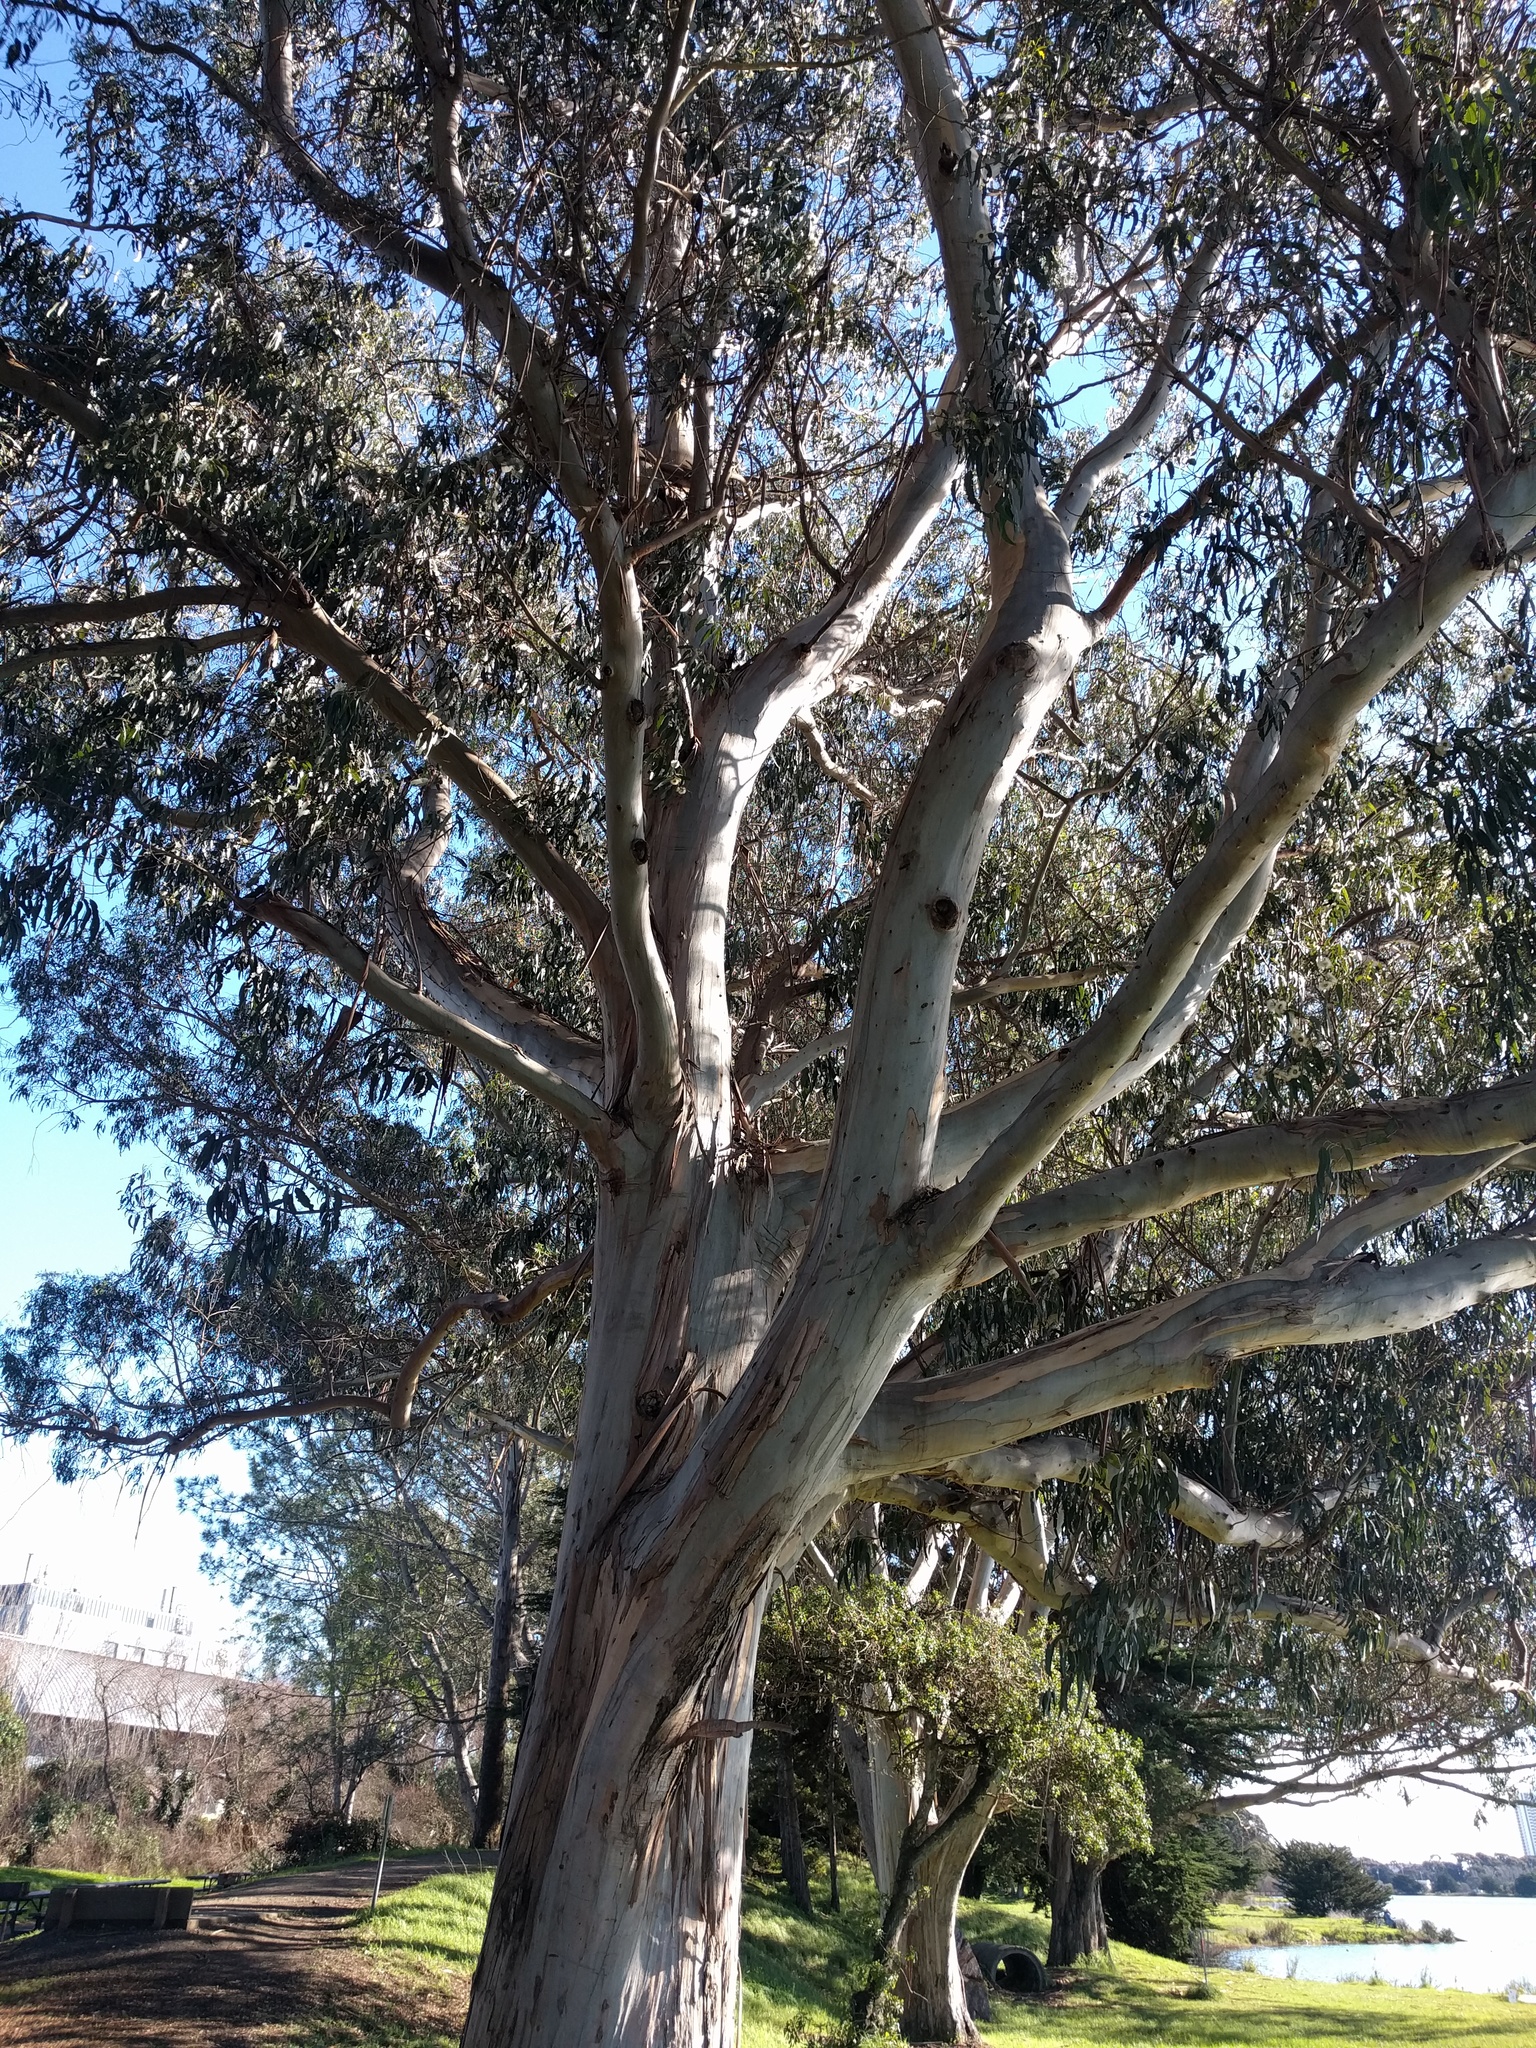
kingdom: Plantae
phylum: Tracheophyta
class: Magnoliopsida
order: Myrtales
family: Myrtaceae
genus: Eucalyptus
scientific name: Eucalyptus globulus
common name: Southern blue-gum
